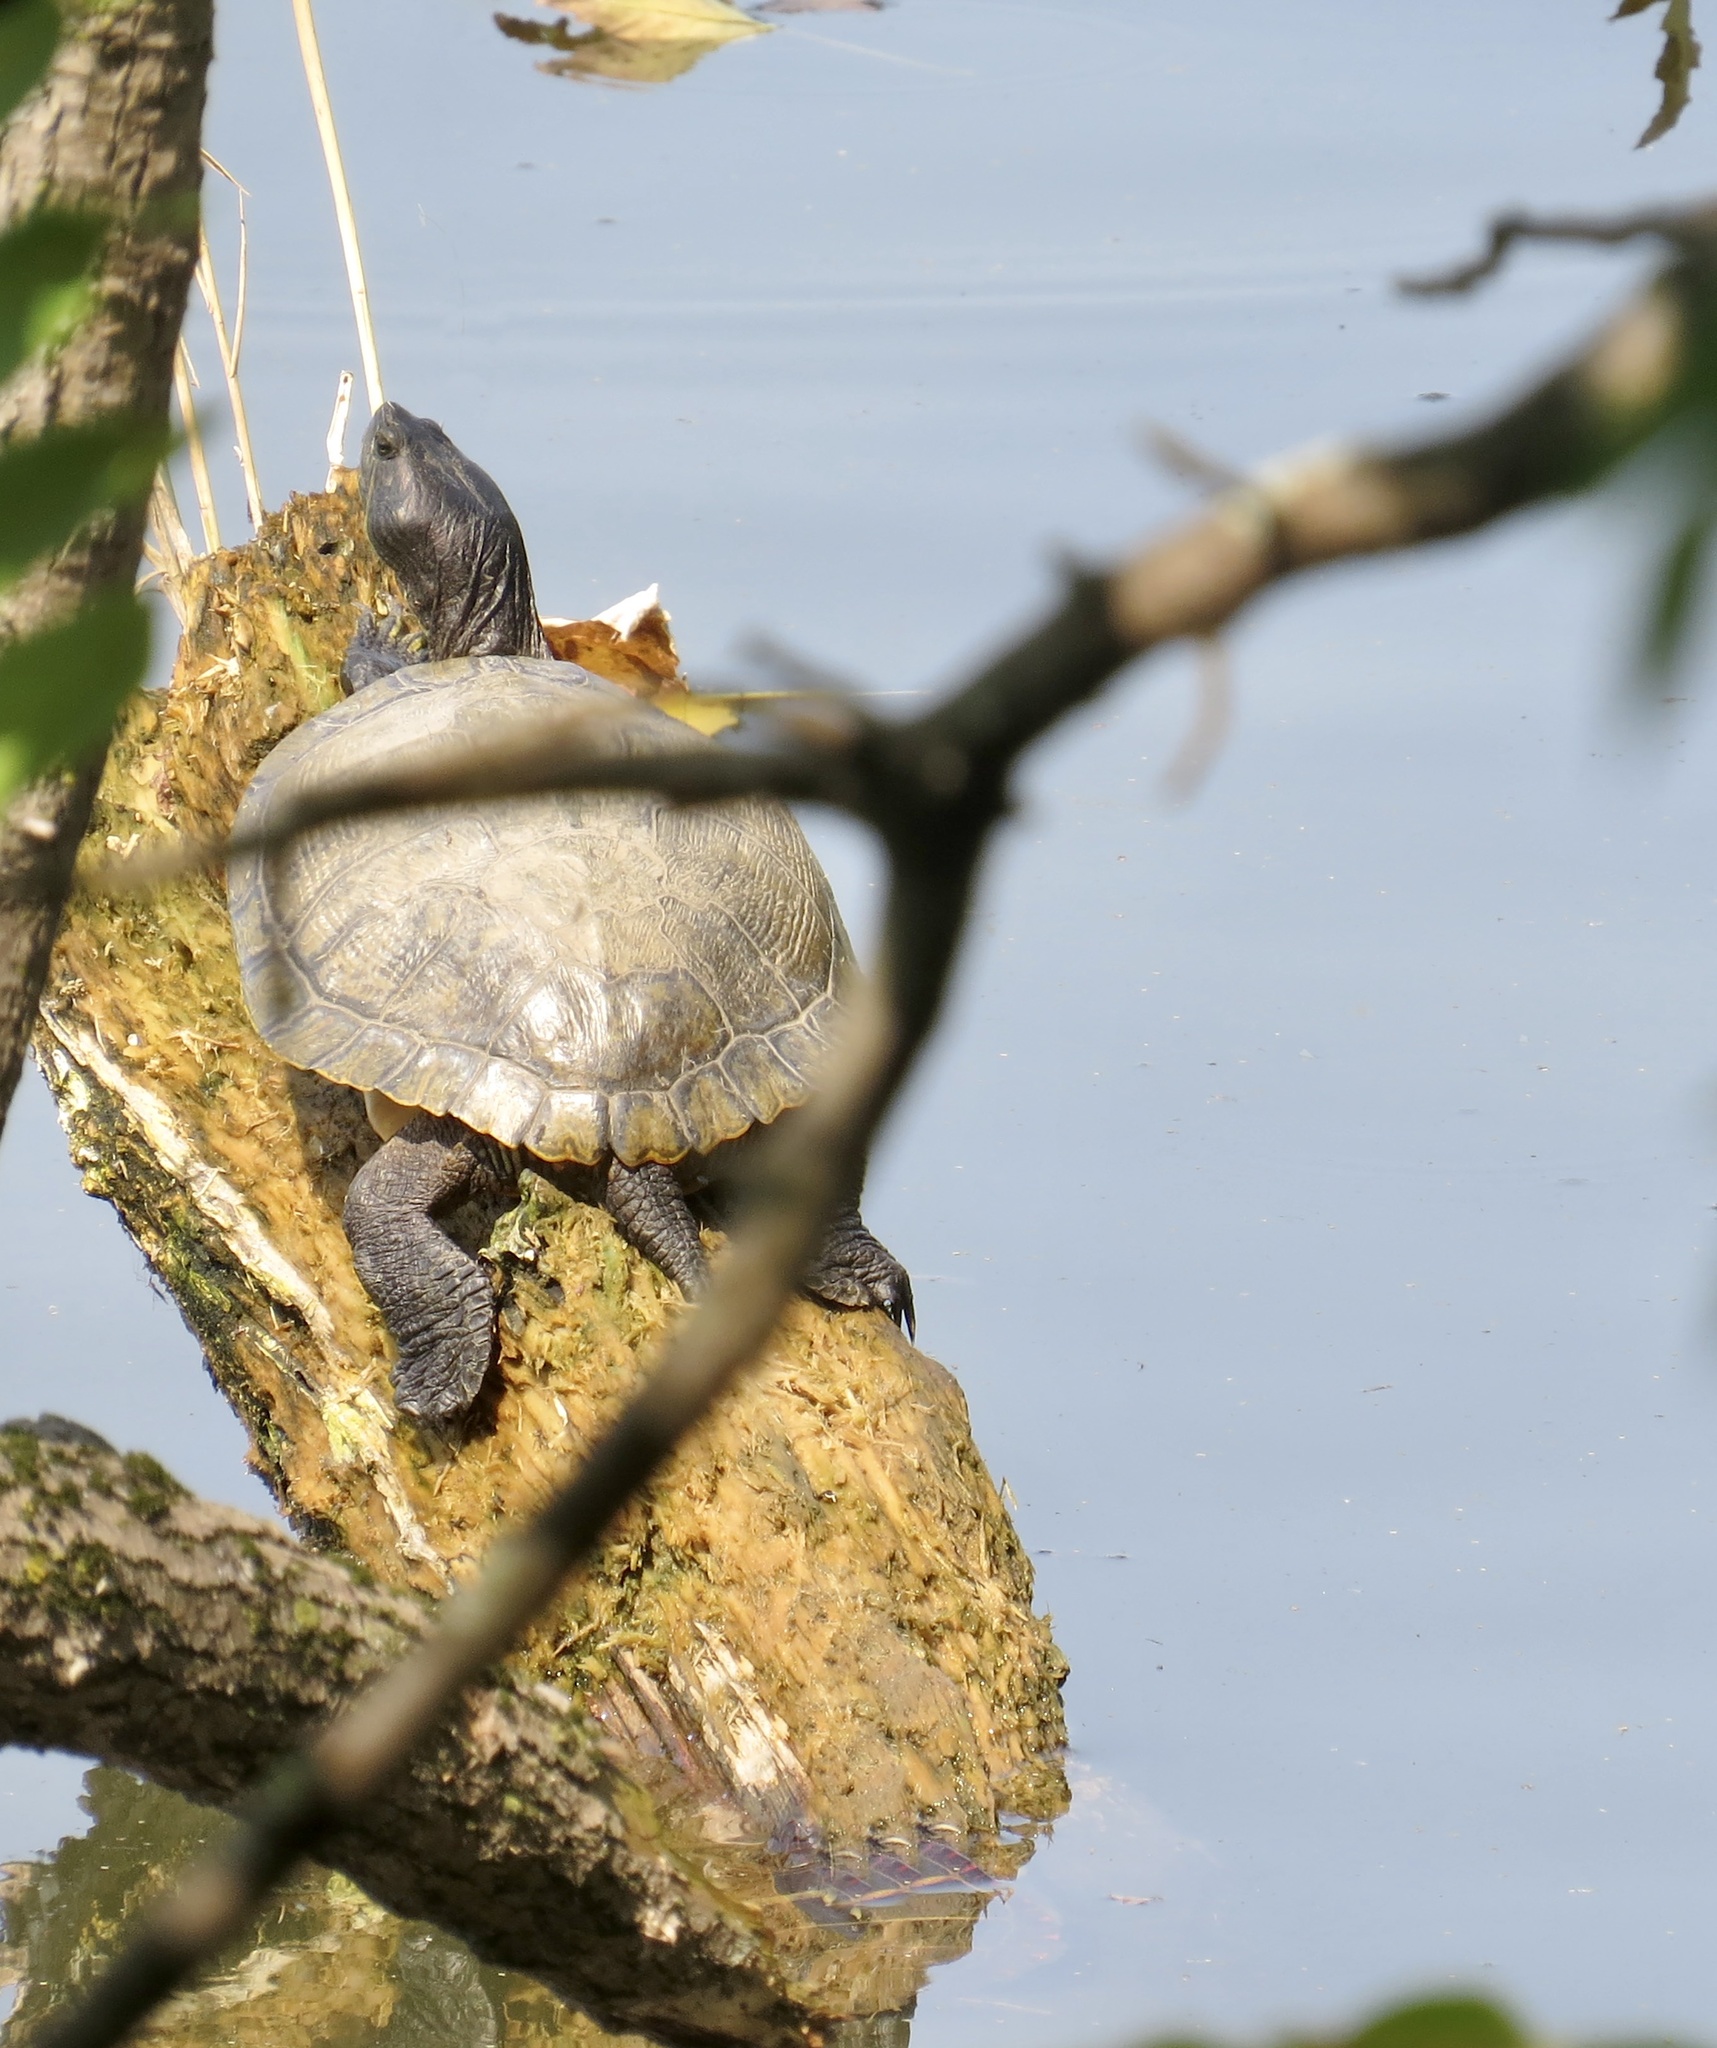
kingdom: Animalia
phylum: Chordata
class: Testudines
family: Emydidae
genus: Trachemys
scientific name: Trachemys scripta
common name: Slider
